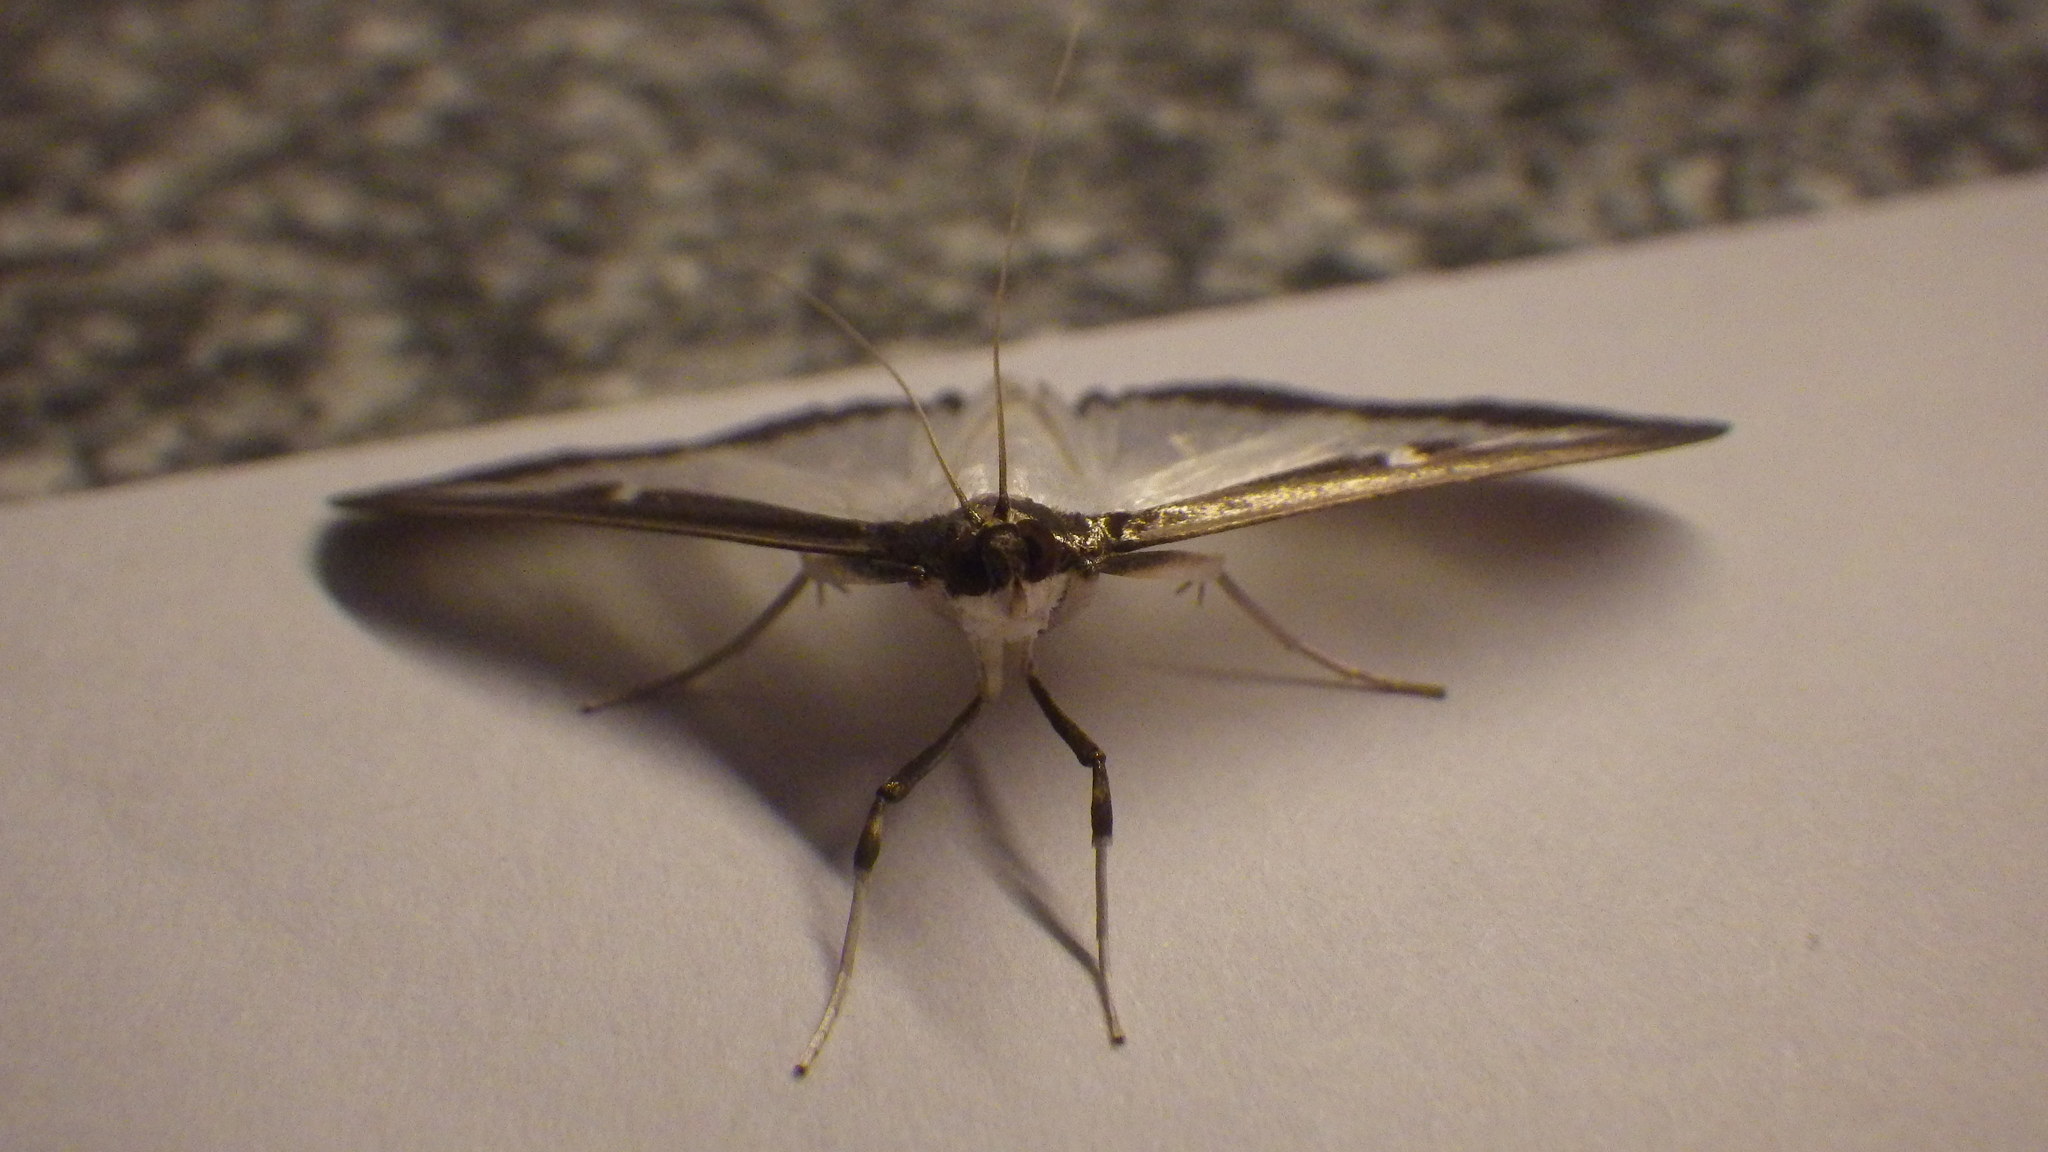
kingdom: Animalia
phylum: Arthropoda
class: Insecta
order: Lepidoptera
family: Crambidae
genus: Cydalima
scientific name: Cydalima perspectalis
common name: Box tree moth
